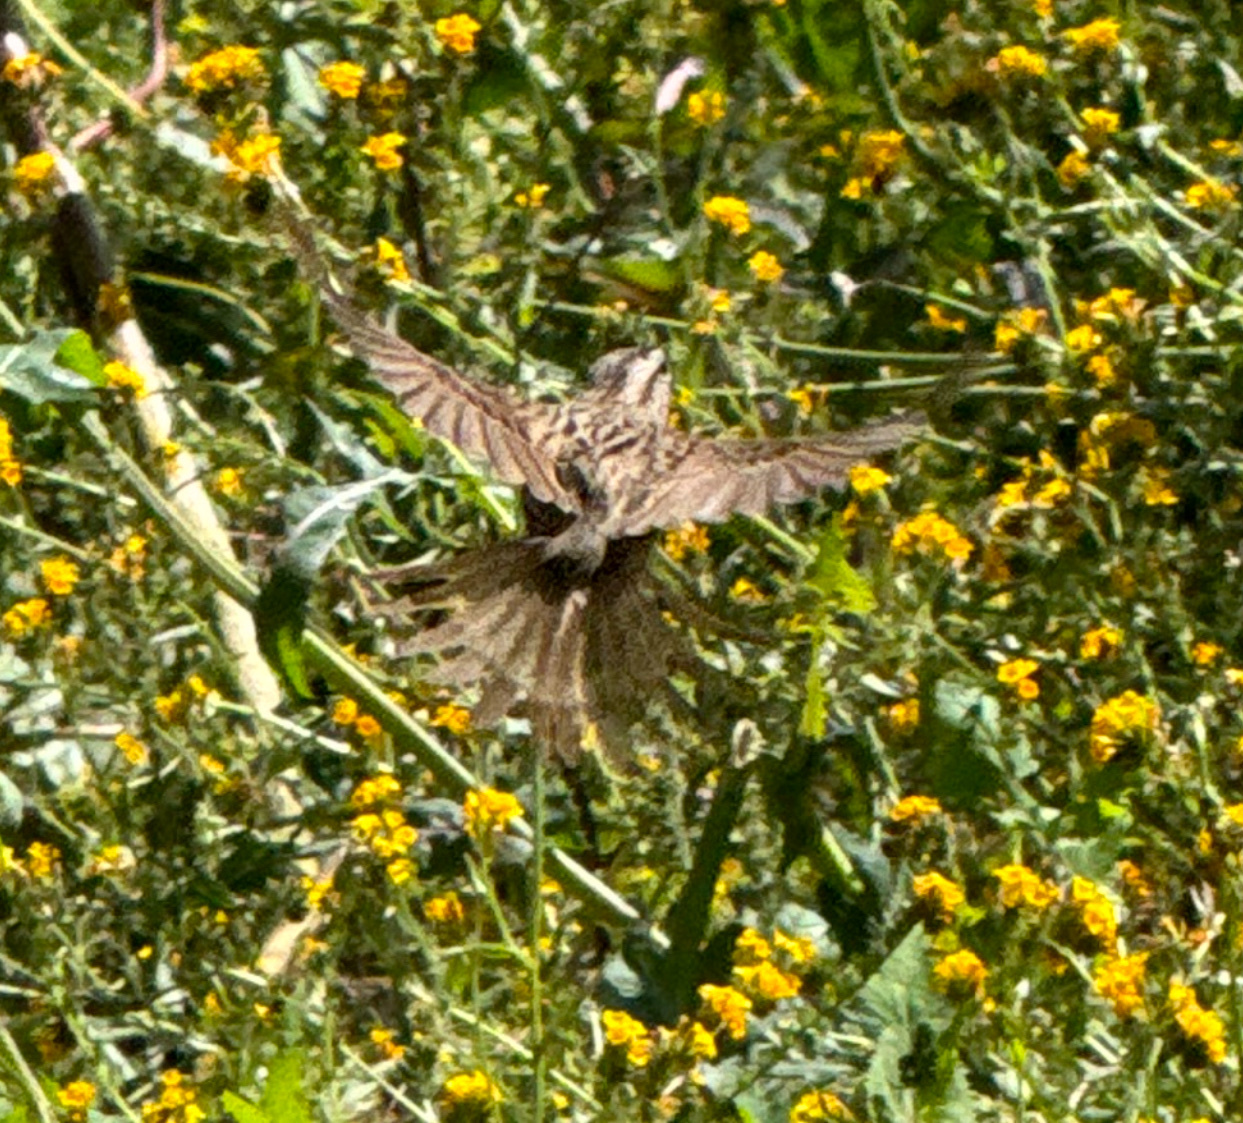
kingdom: Animalia
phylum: Chordata
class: Aves
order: Passeriformes
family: Passerellidae
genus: Melospiza
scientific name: Melospiza melodia
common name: Song sparrow
